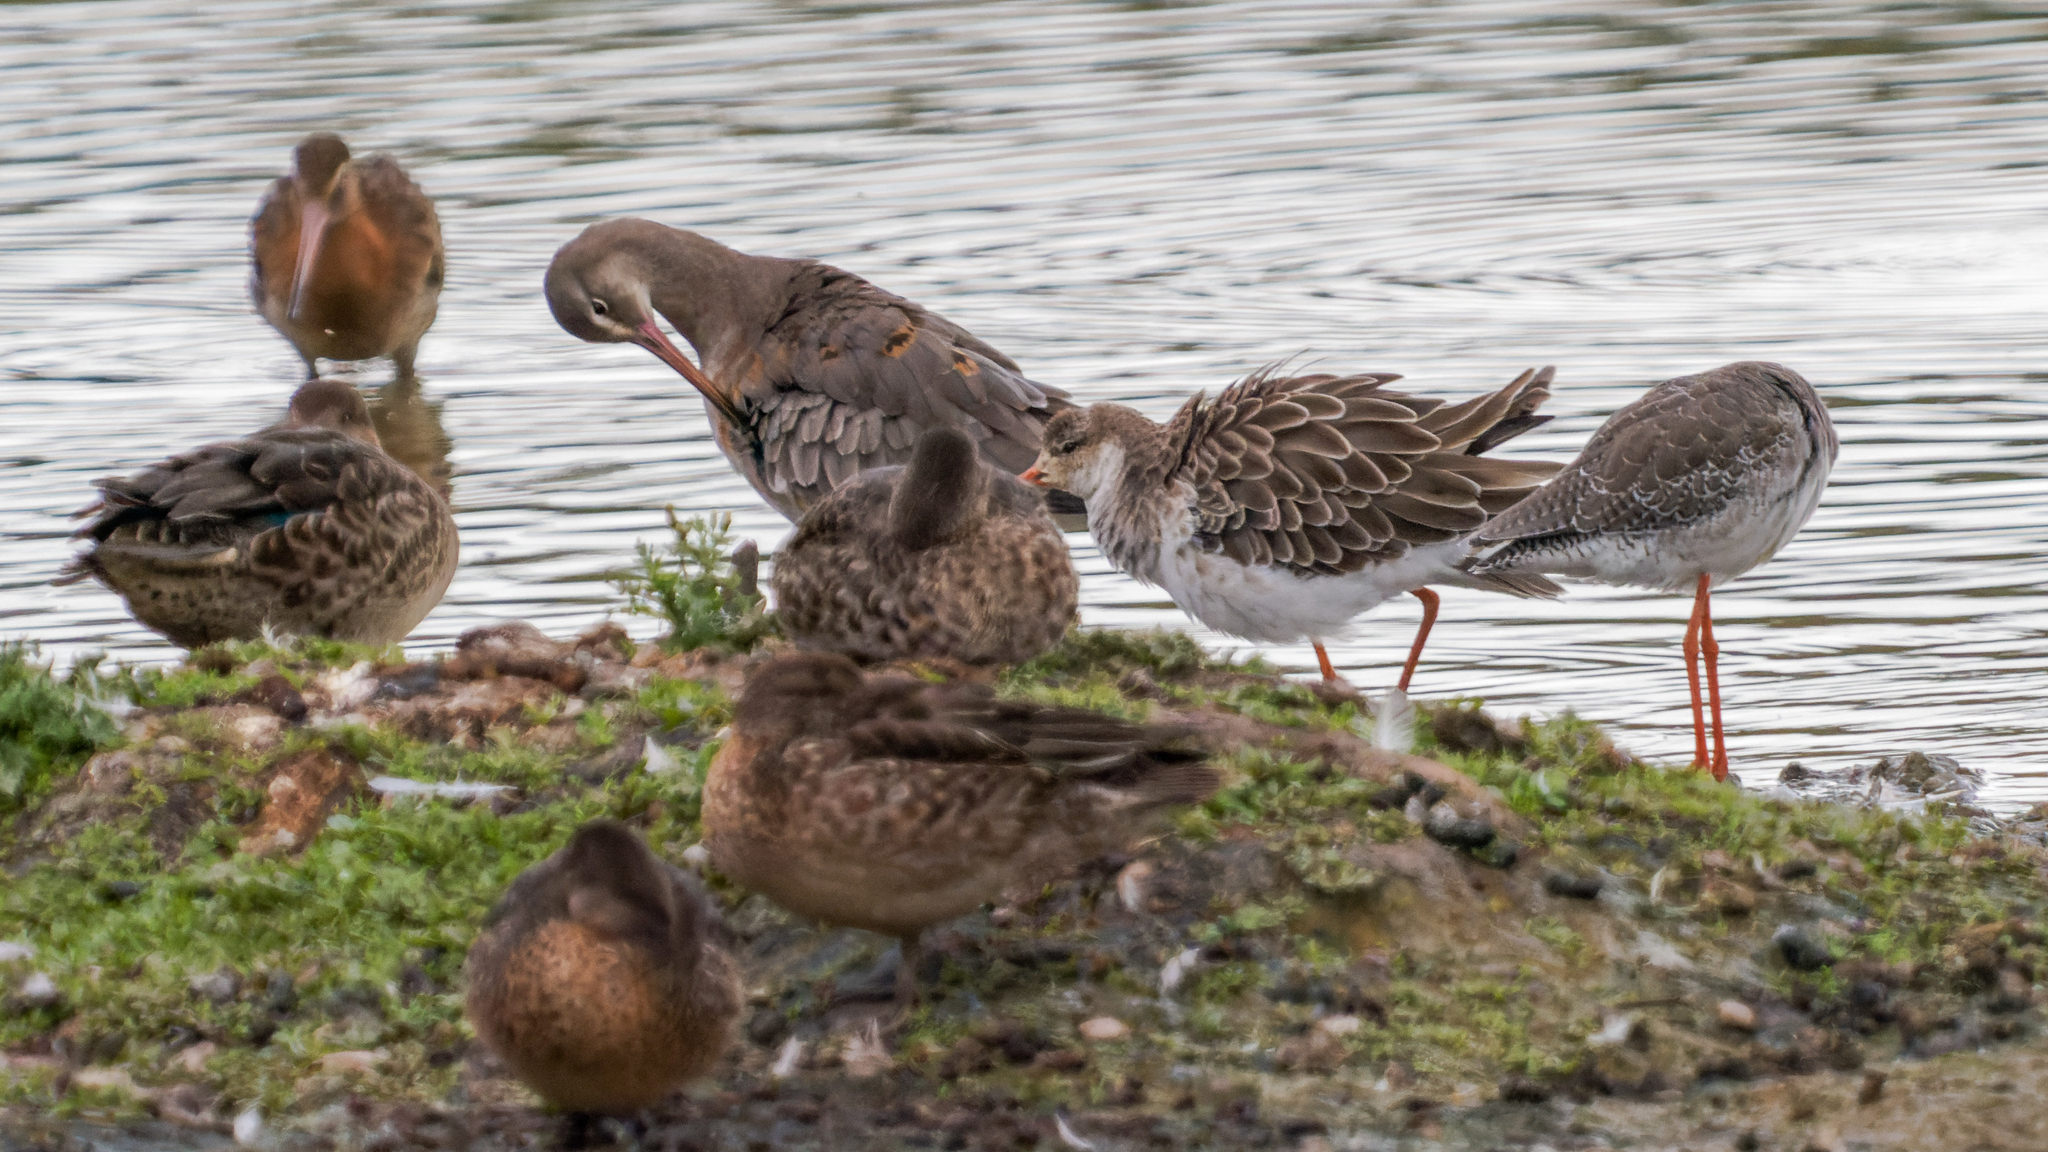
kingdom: Animalia
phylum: Chordata
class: Aves
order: Charadriiformes
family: Scolopacidae
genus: Calidris
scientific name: Calidris pugnax
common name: Ruff
